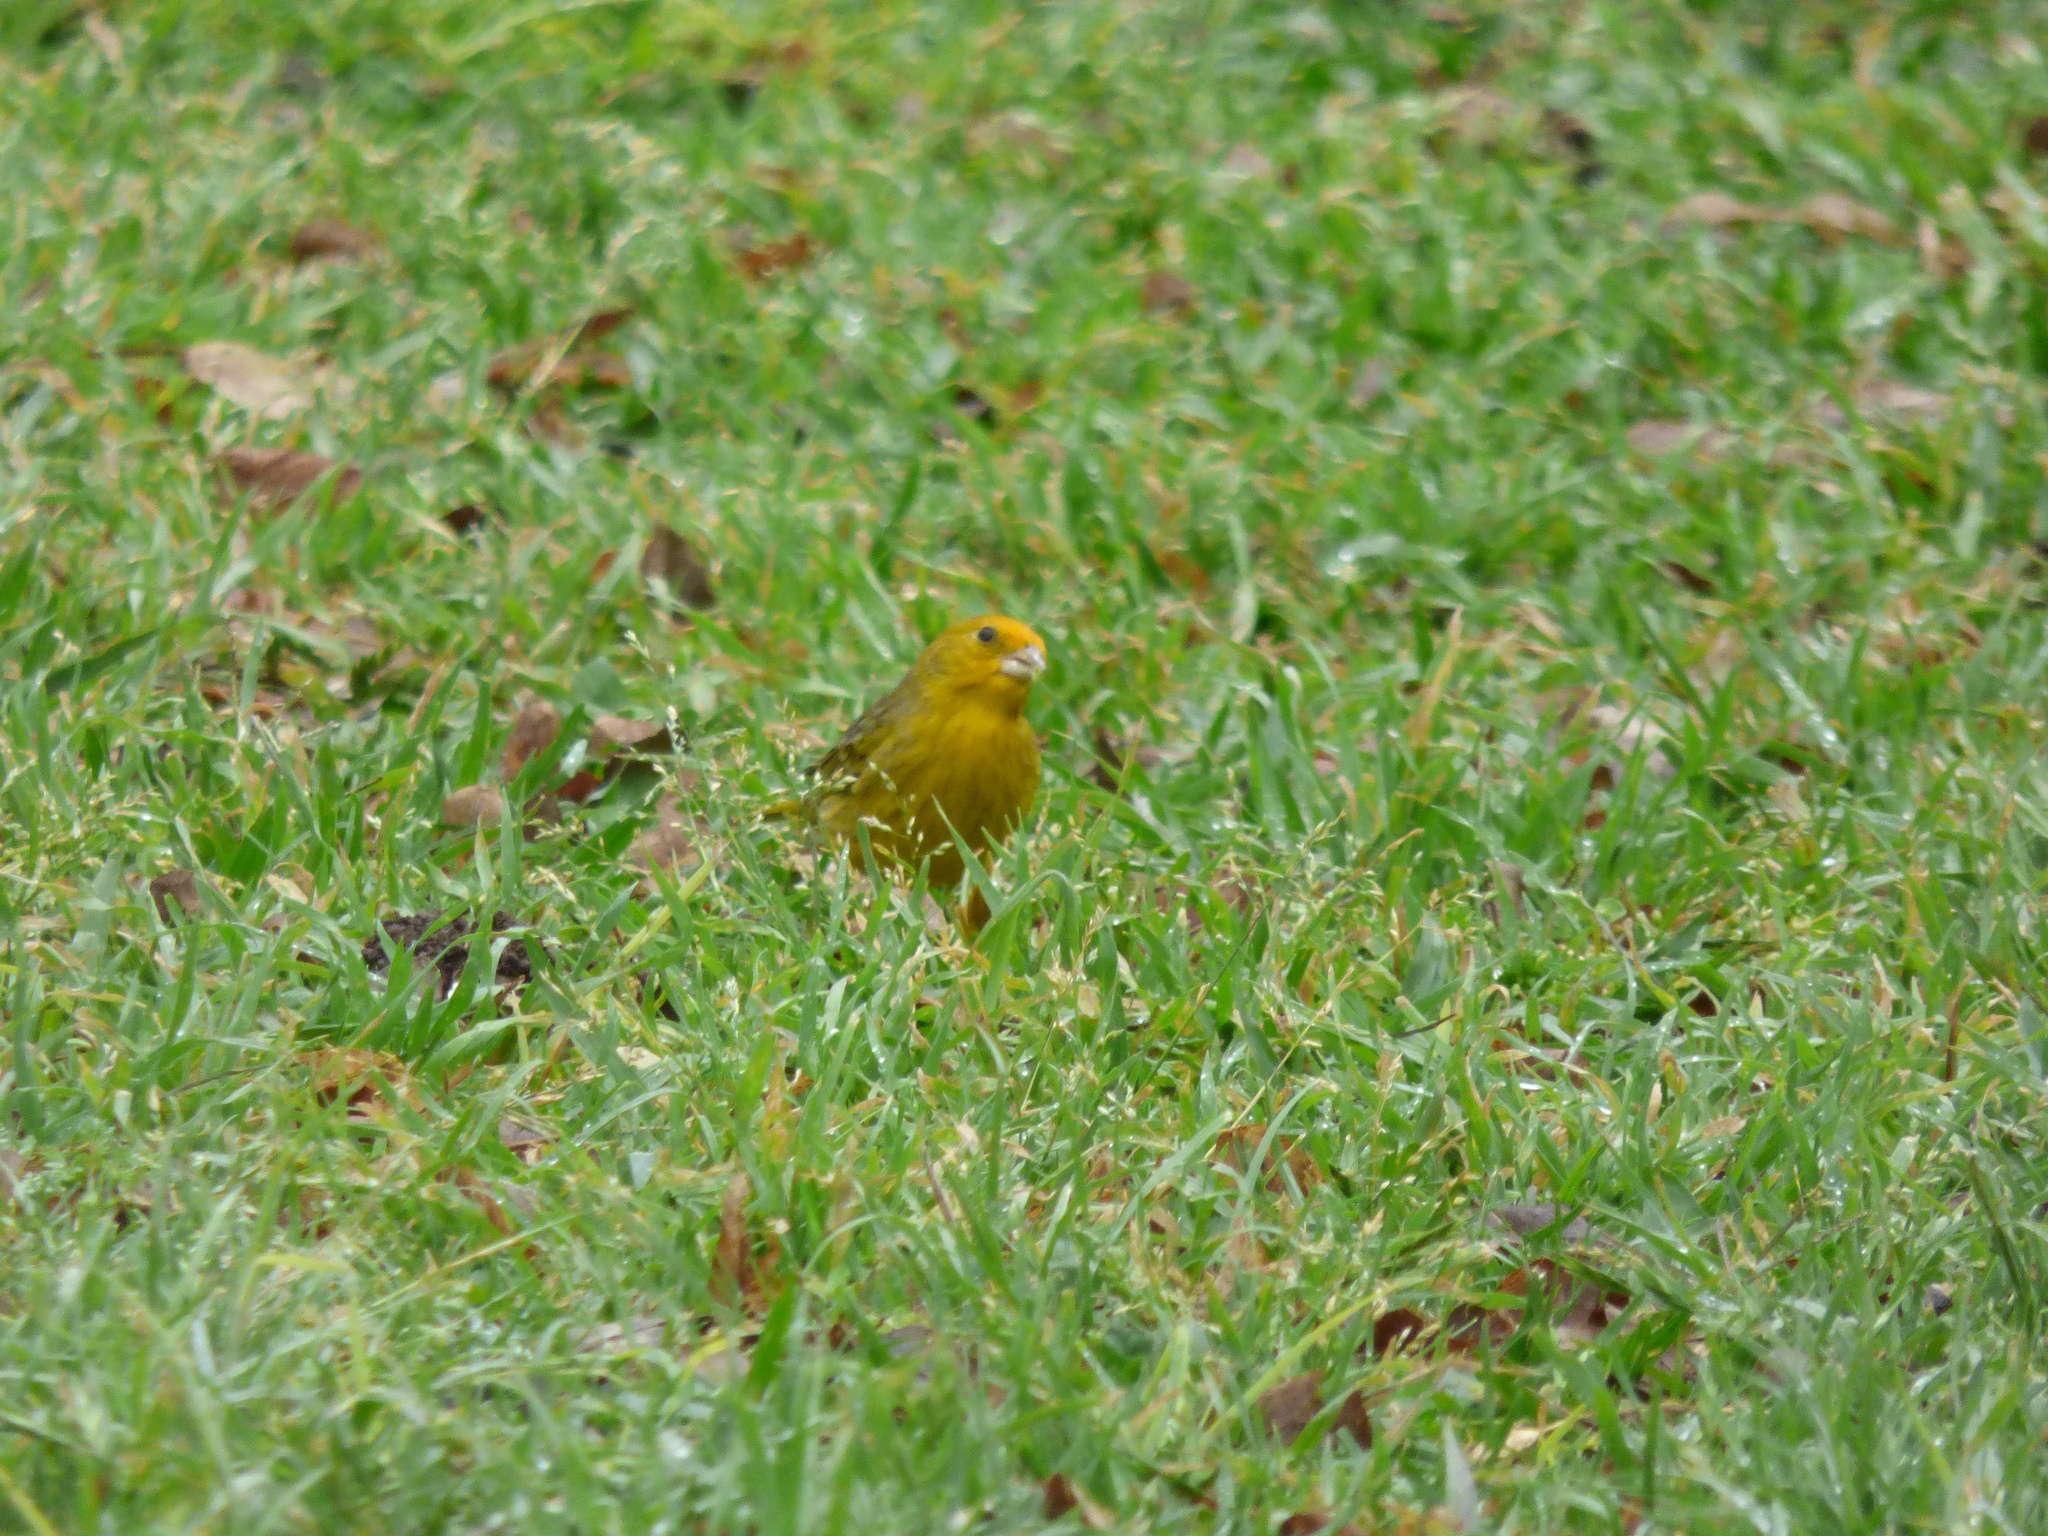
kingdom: Animalia
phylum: Chordata
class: Aves
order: Passeriformes
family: Thraupidae
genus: Sicalis
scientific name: Sicalis flaveola
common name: Saffron finch
